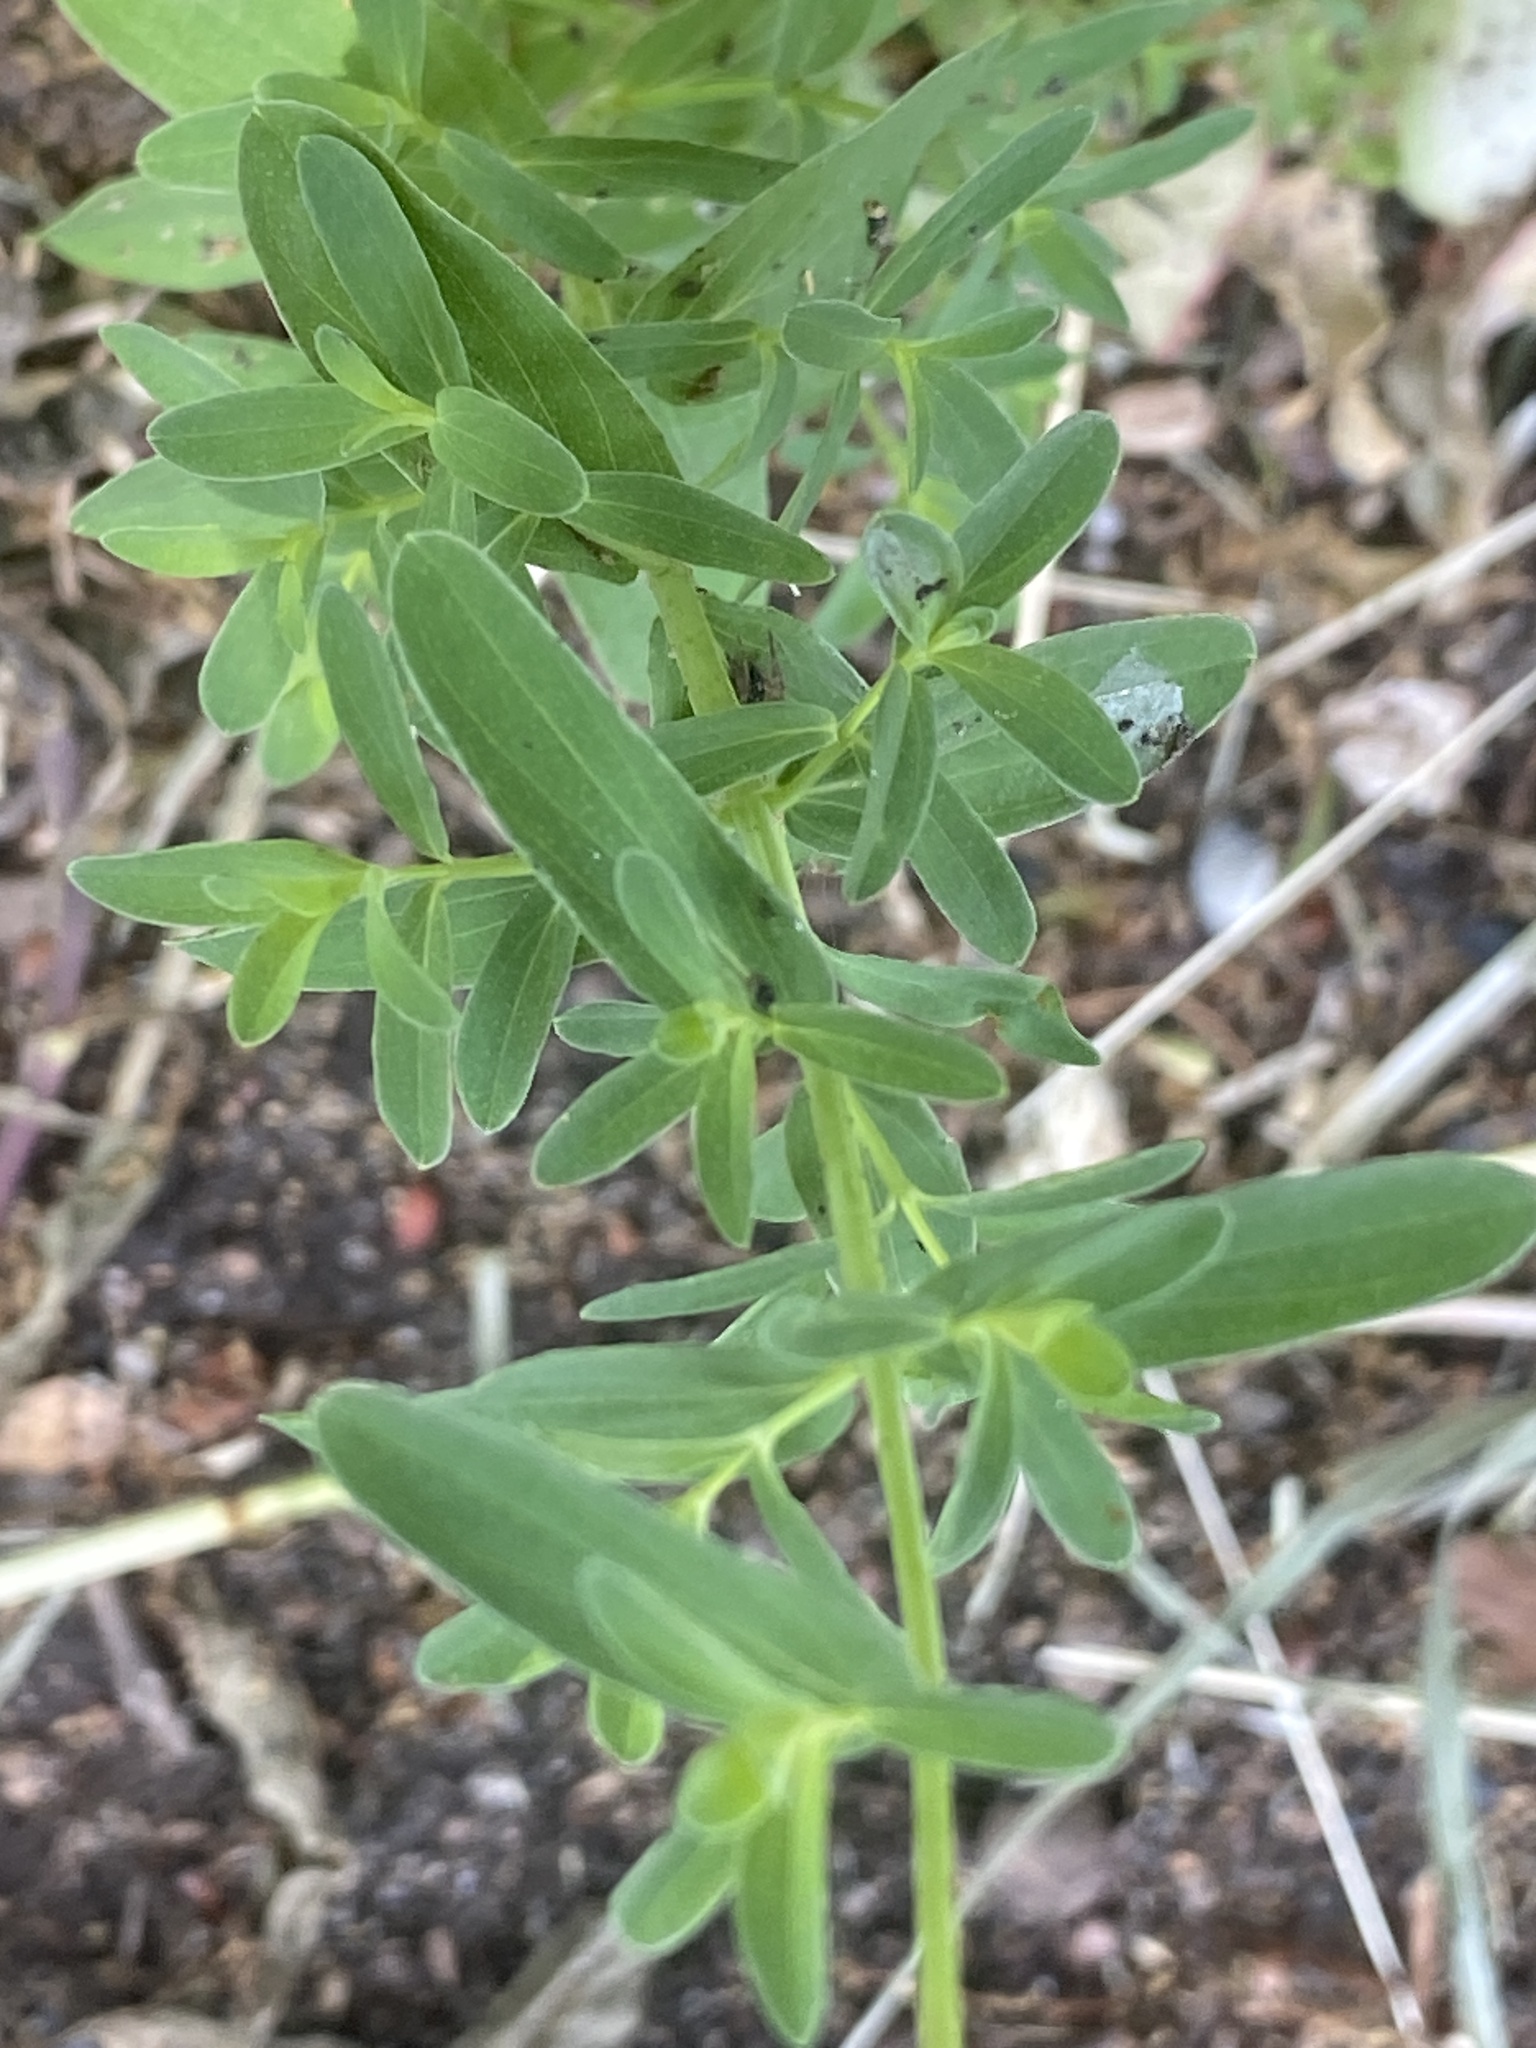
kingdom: Plantae
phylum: Tracheophyta
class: Magnoliopsida
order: Malpighiales
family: Hypericaceae
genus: Hypericum
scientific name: Hypericum perforatum
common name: Common st. johnswort
